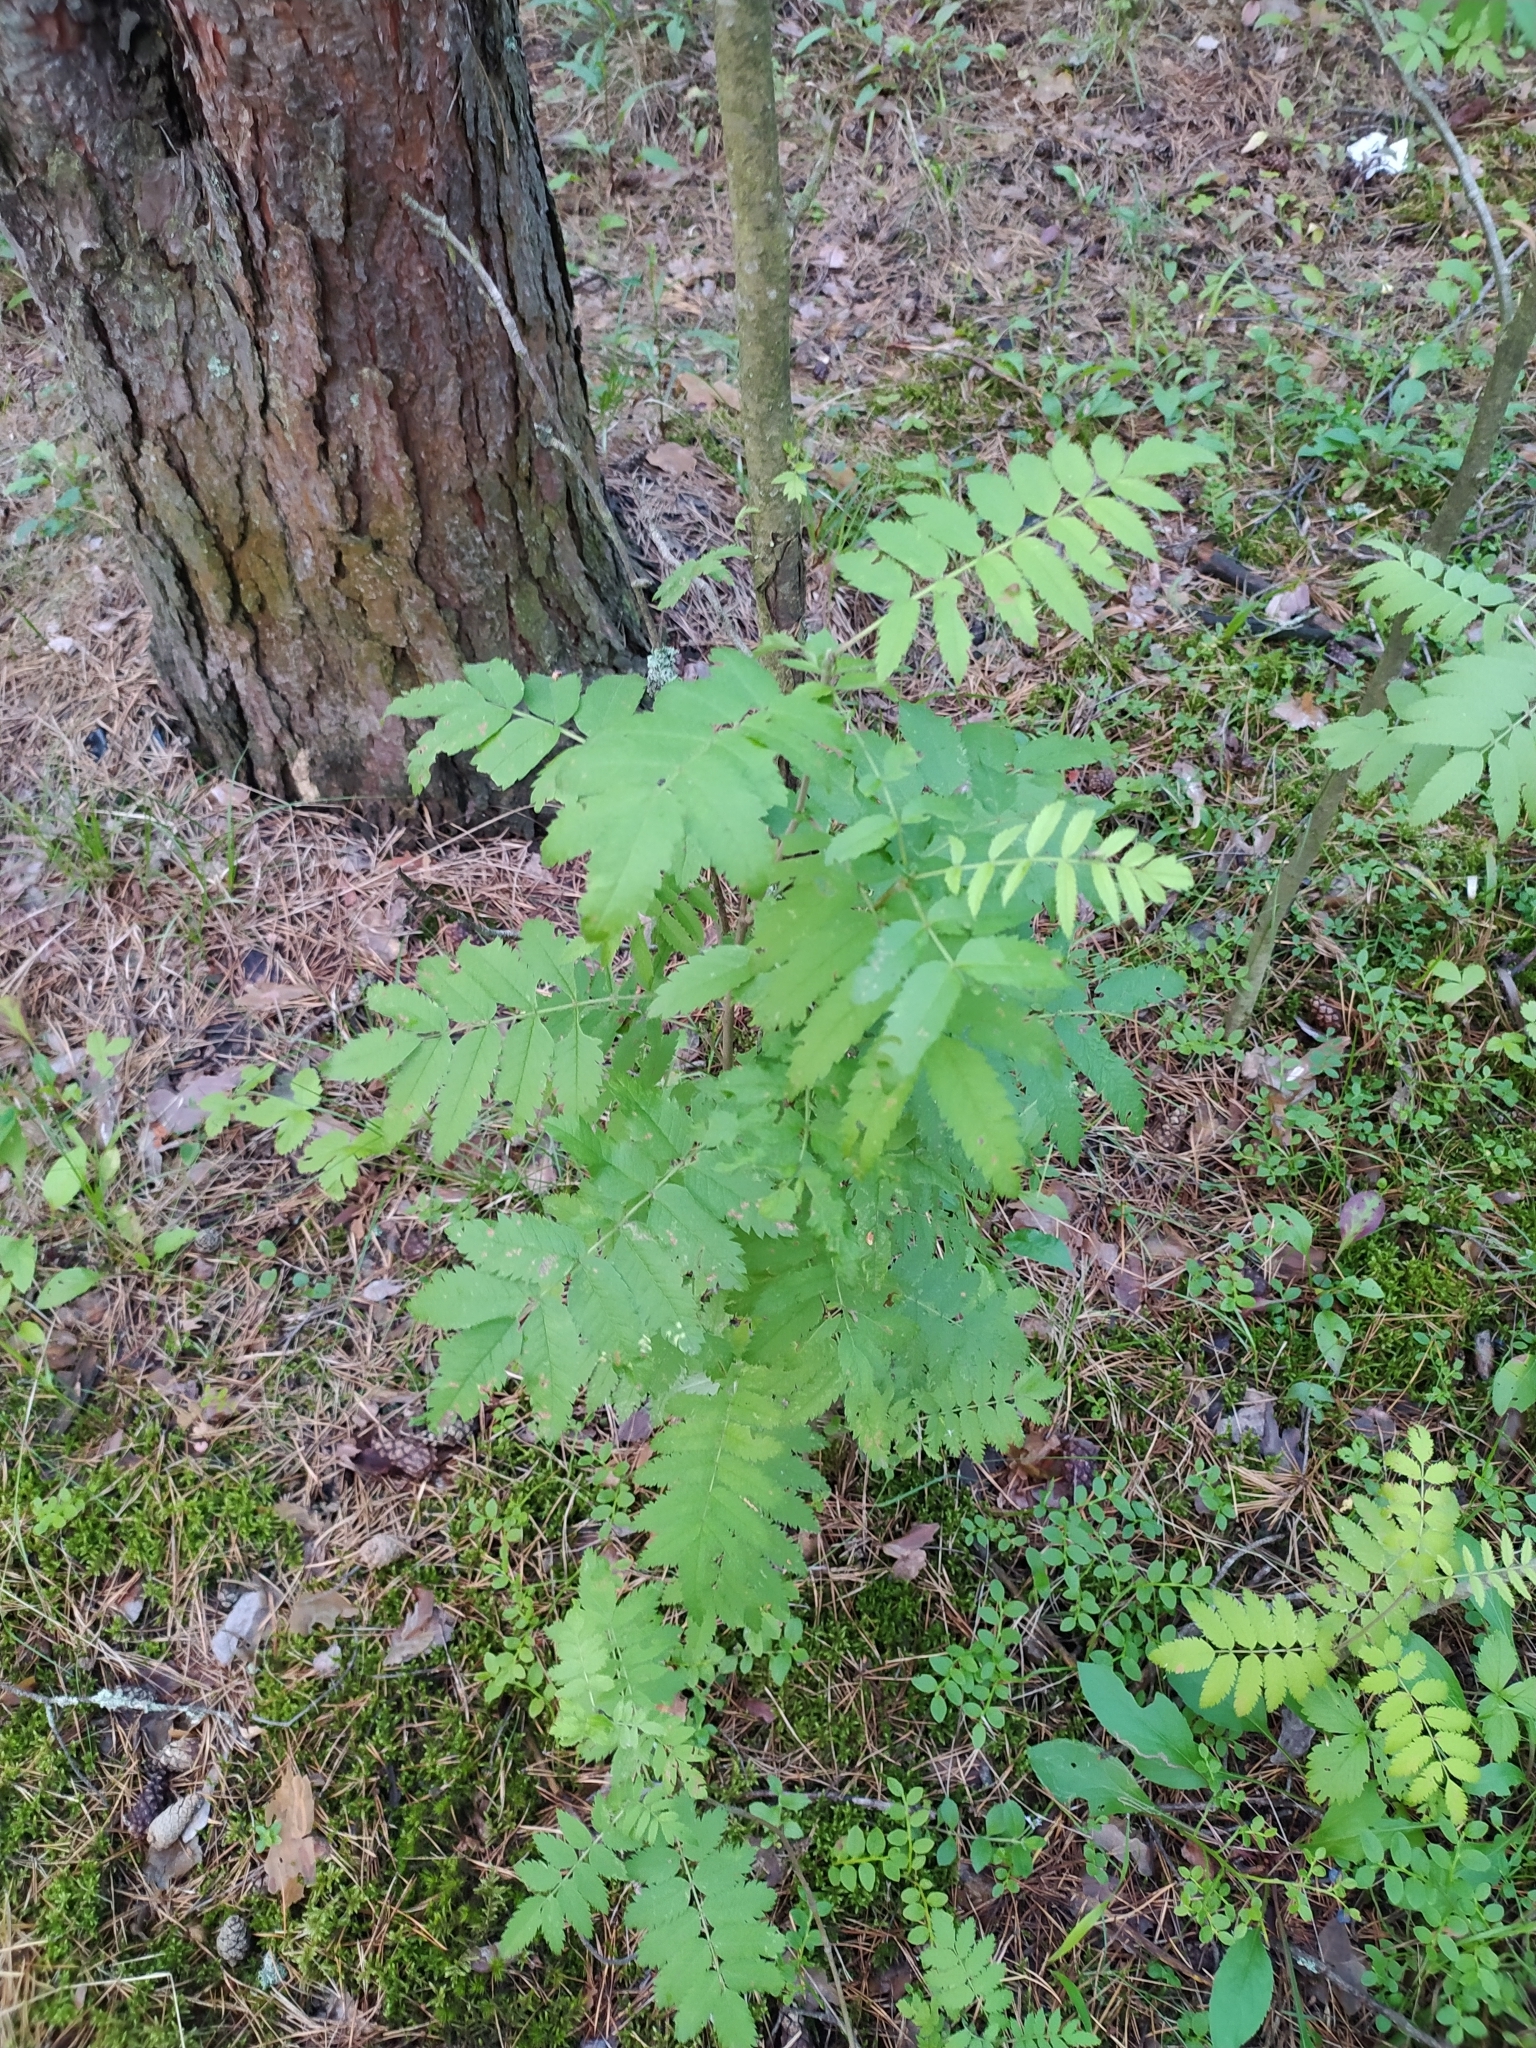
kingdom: Plantae
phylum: Tracheophyta
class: Magnoliopsida
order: Rosales
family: Rosaceae
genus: Sorbus
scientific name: Sorbus aucuparia
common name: Rowan
